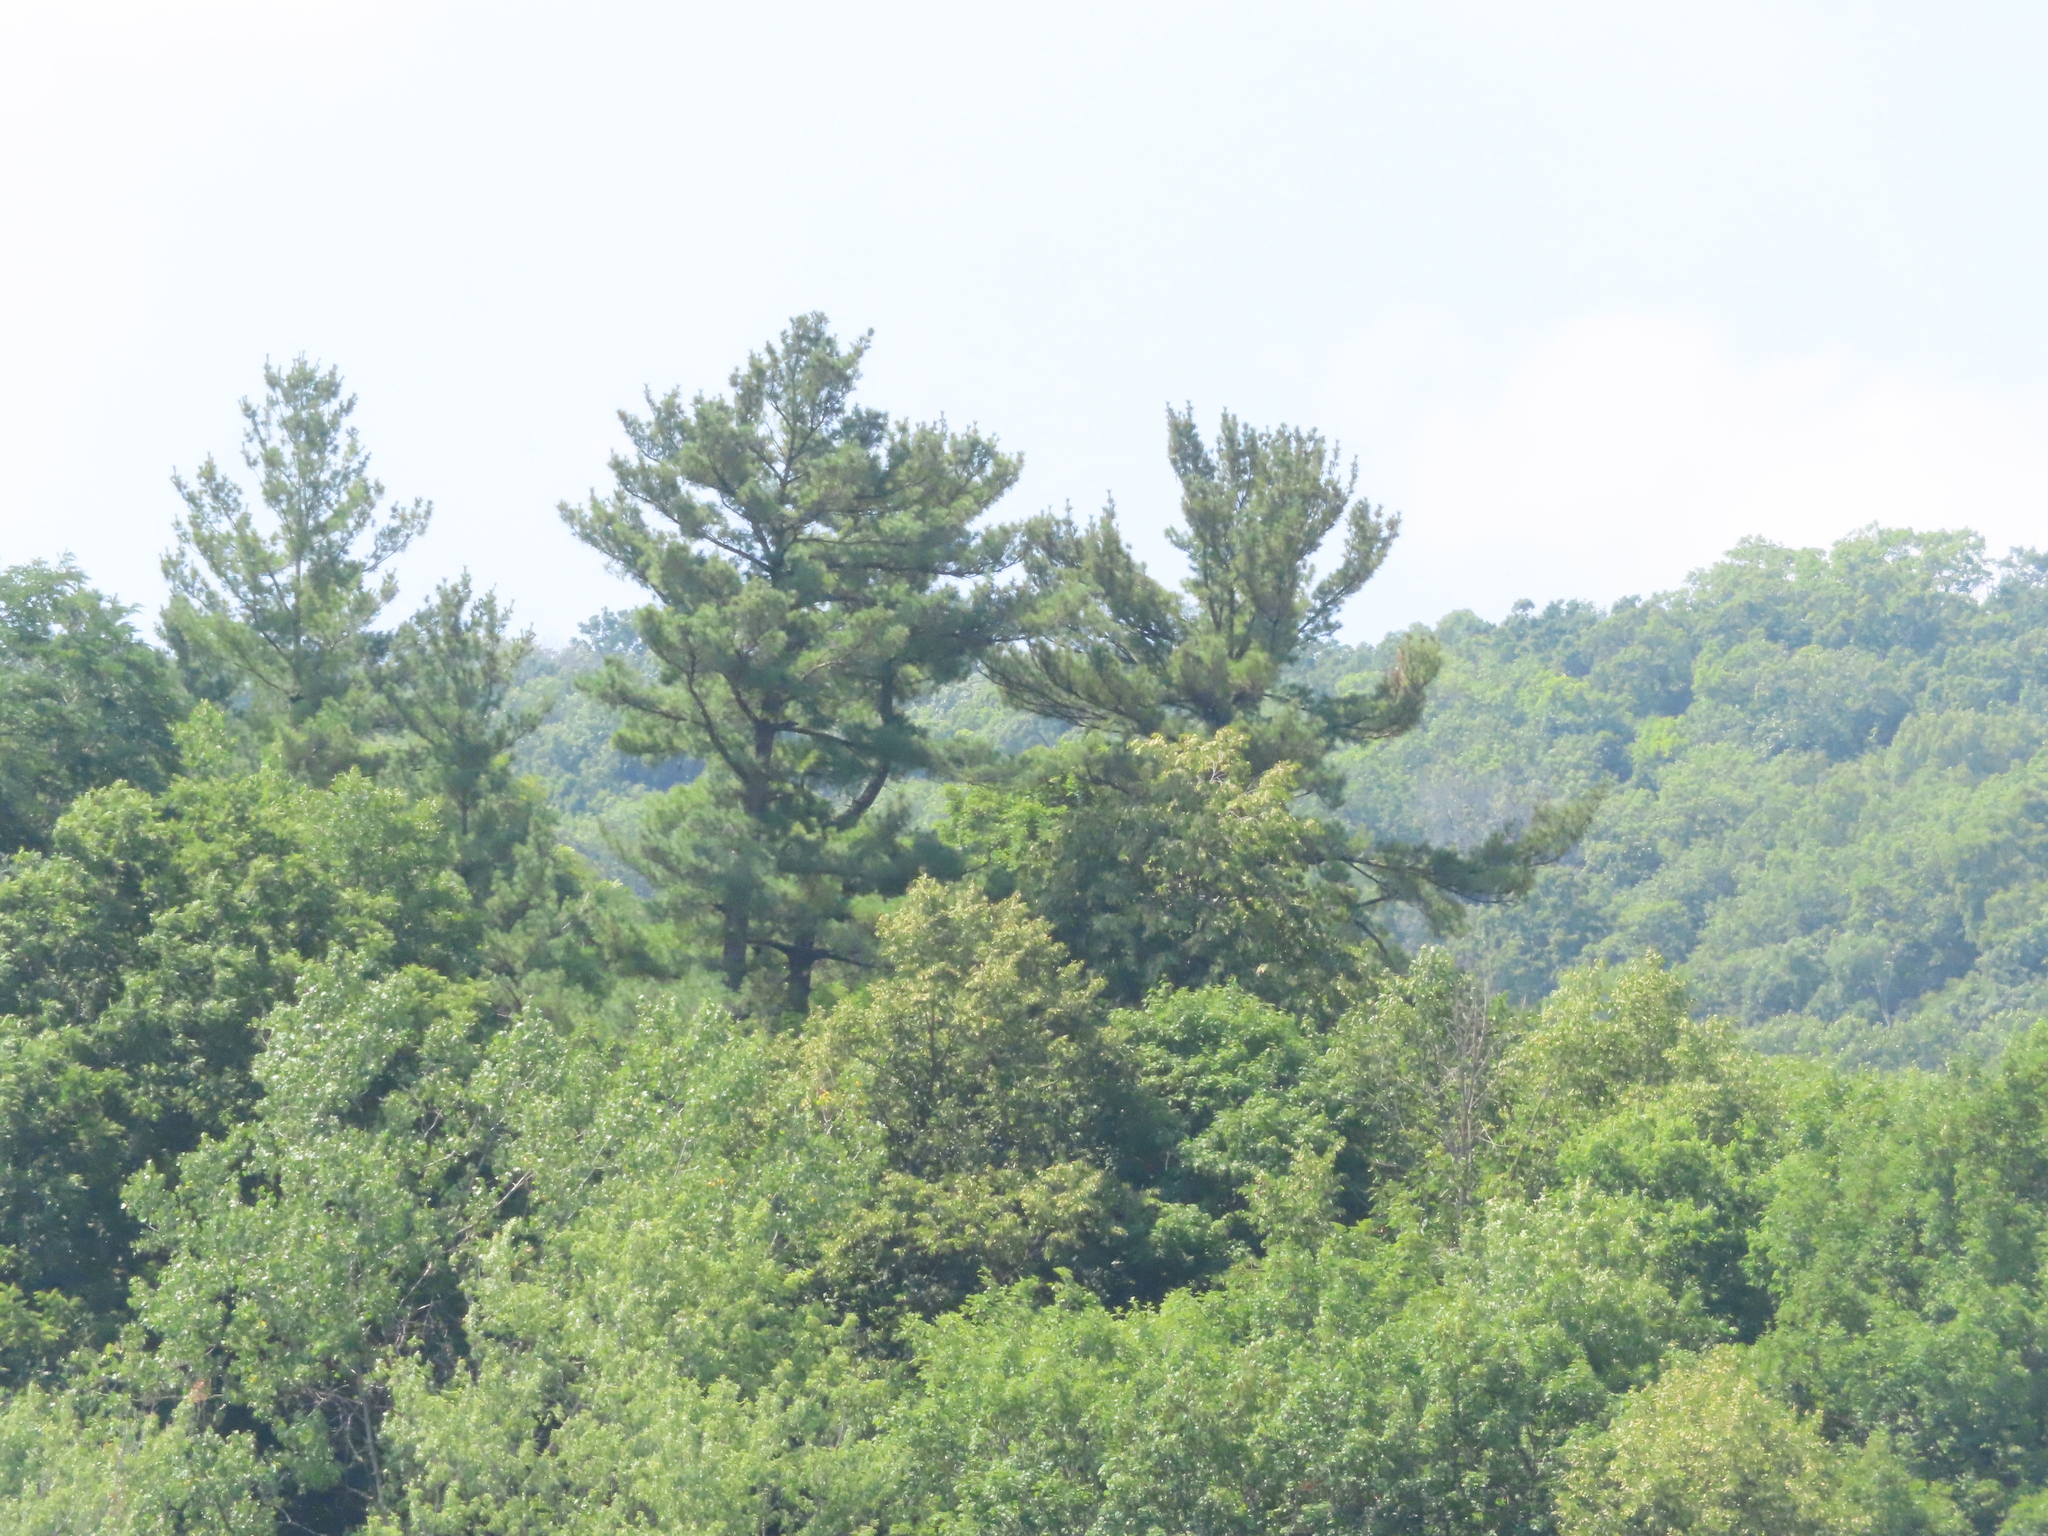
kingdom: Plantae
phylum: Tracheophyta
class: Pinopsida
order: Pinales
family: Pinaceae
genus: Pinus
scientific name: Pinus strobus
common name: Weymouth pine
